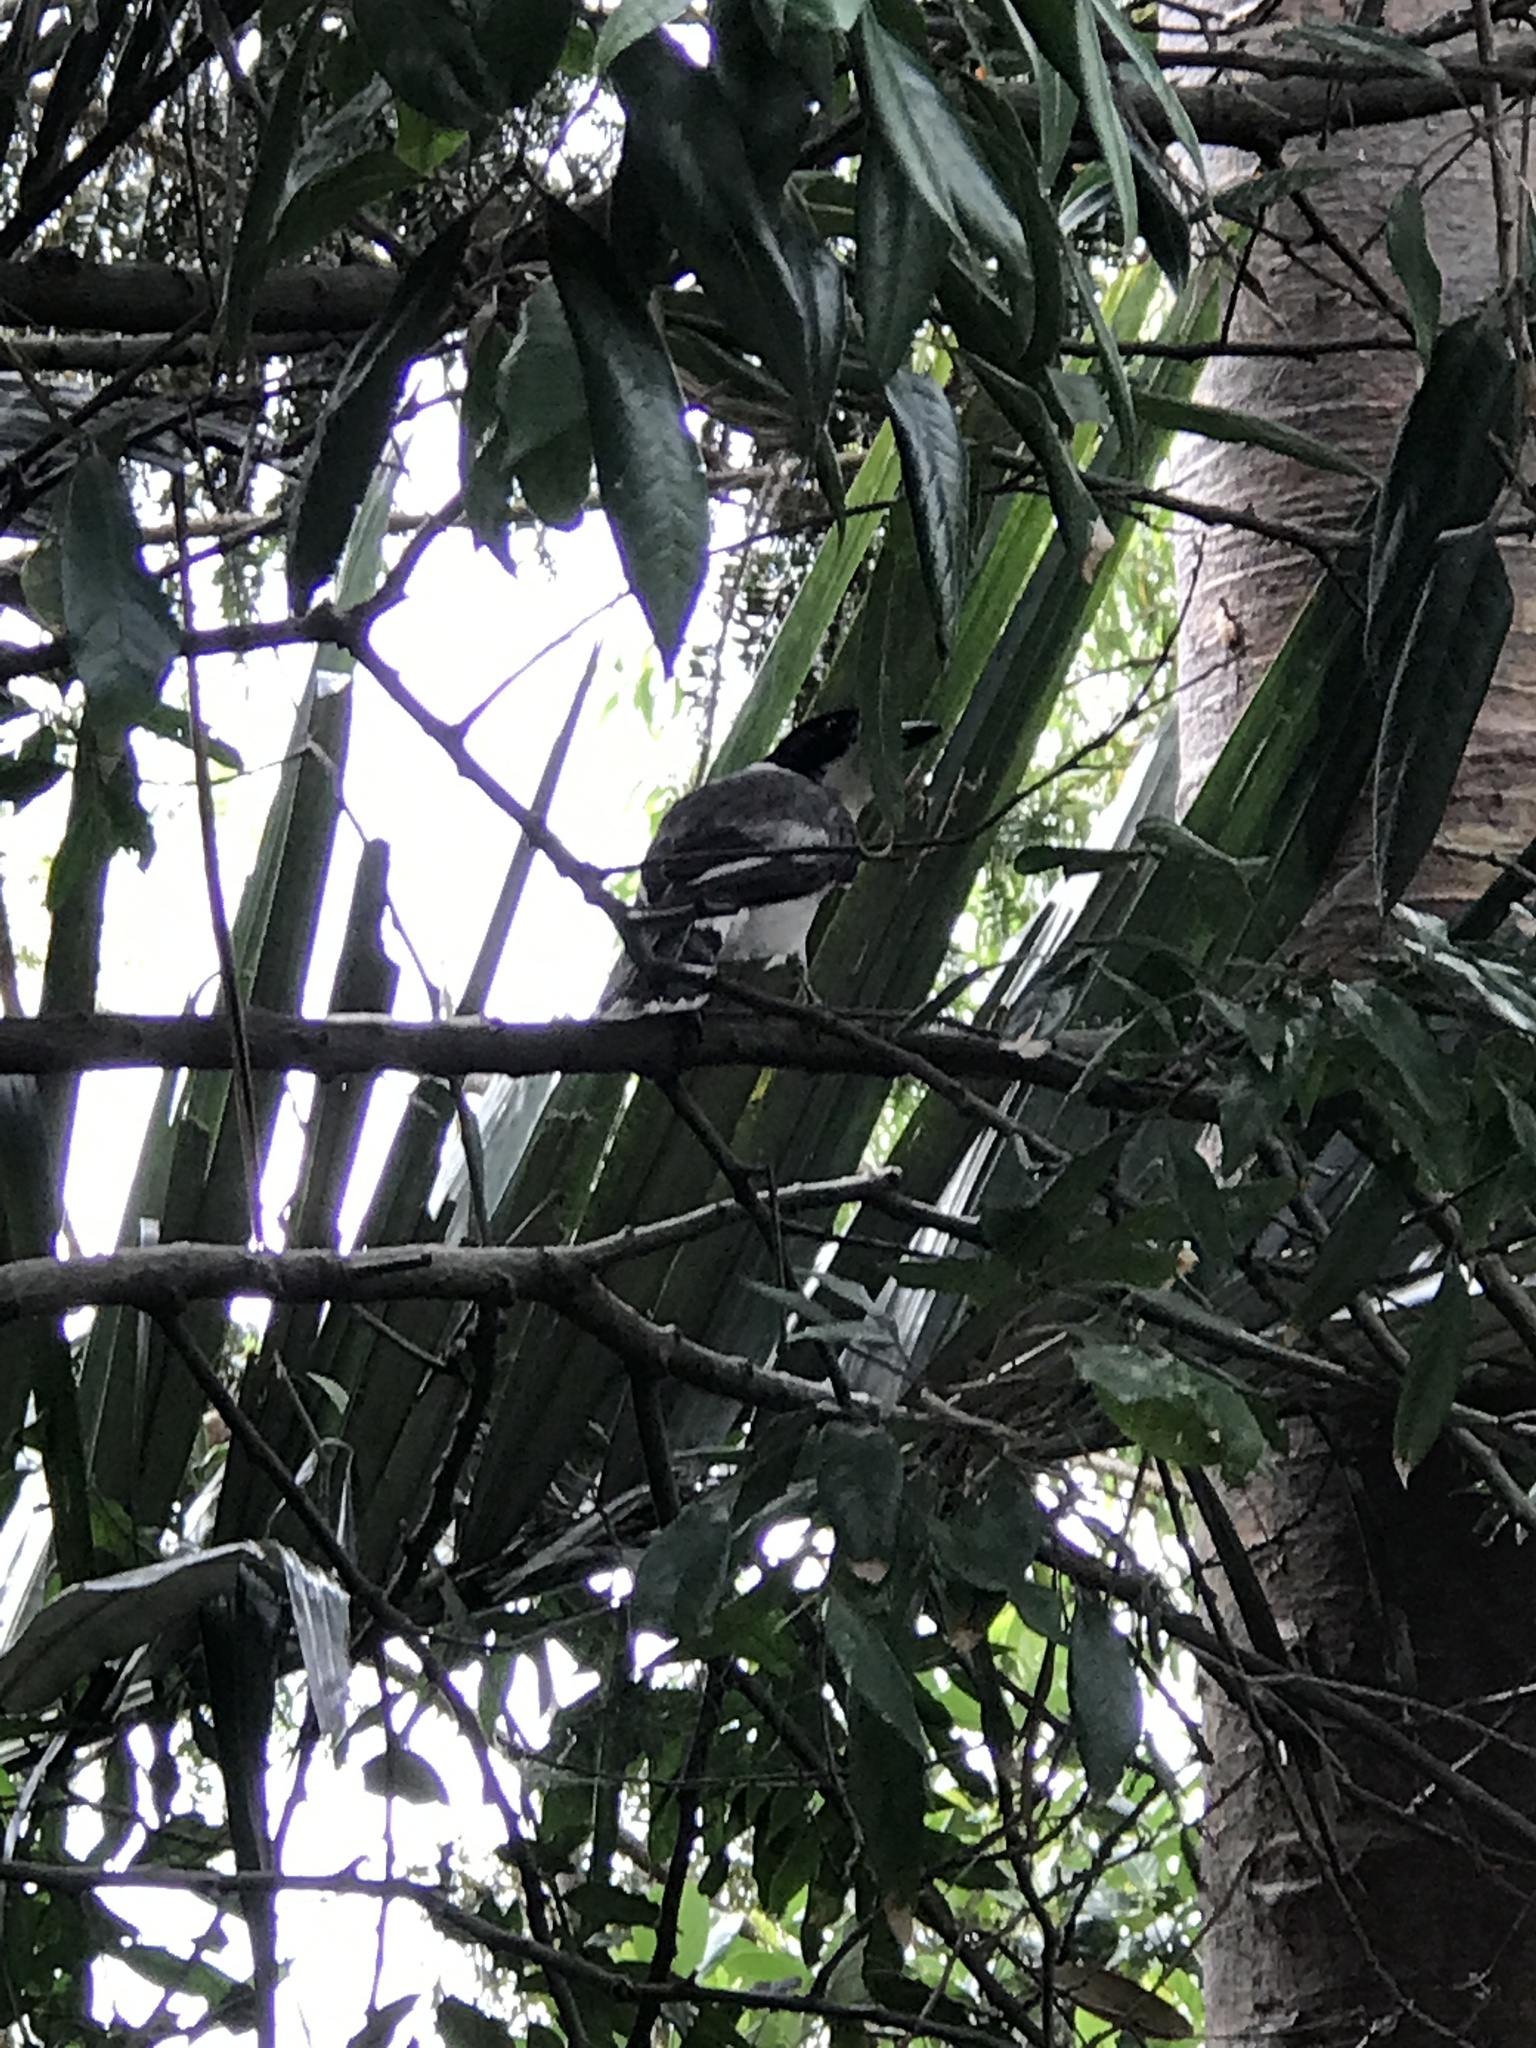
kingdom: Animalia
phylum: Chordata
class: Aves
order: Passeriformes
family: Cracticidae
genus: Cracticus
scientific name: Cracticus torquatus
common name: Grey butcherbird
